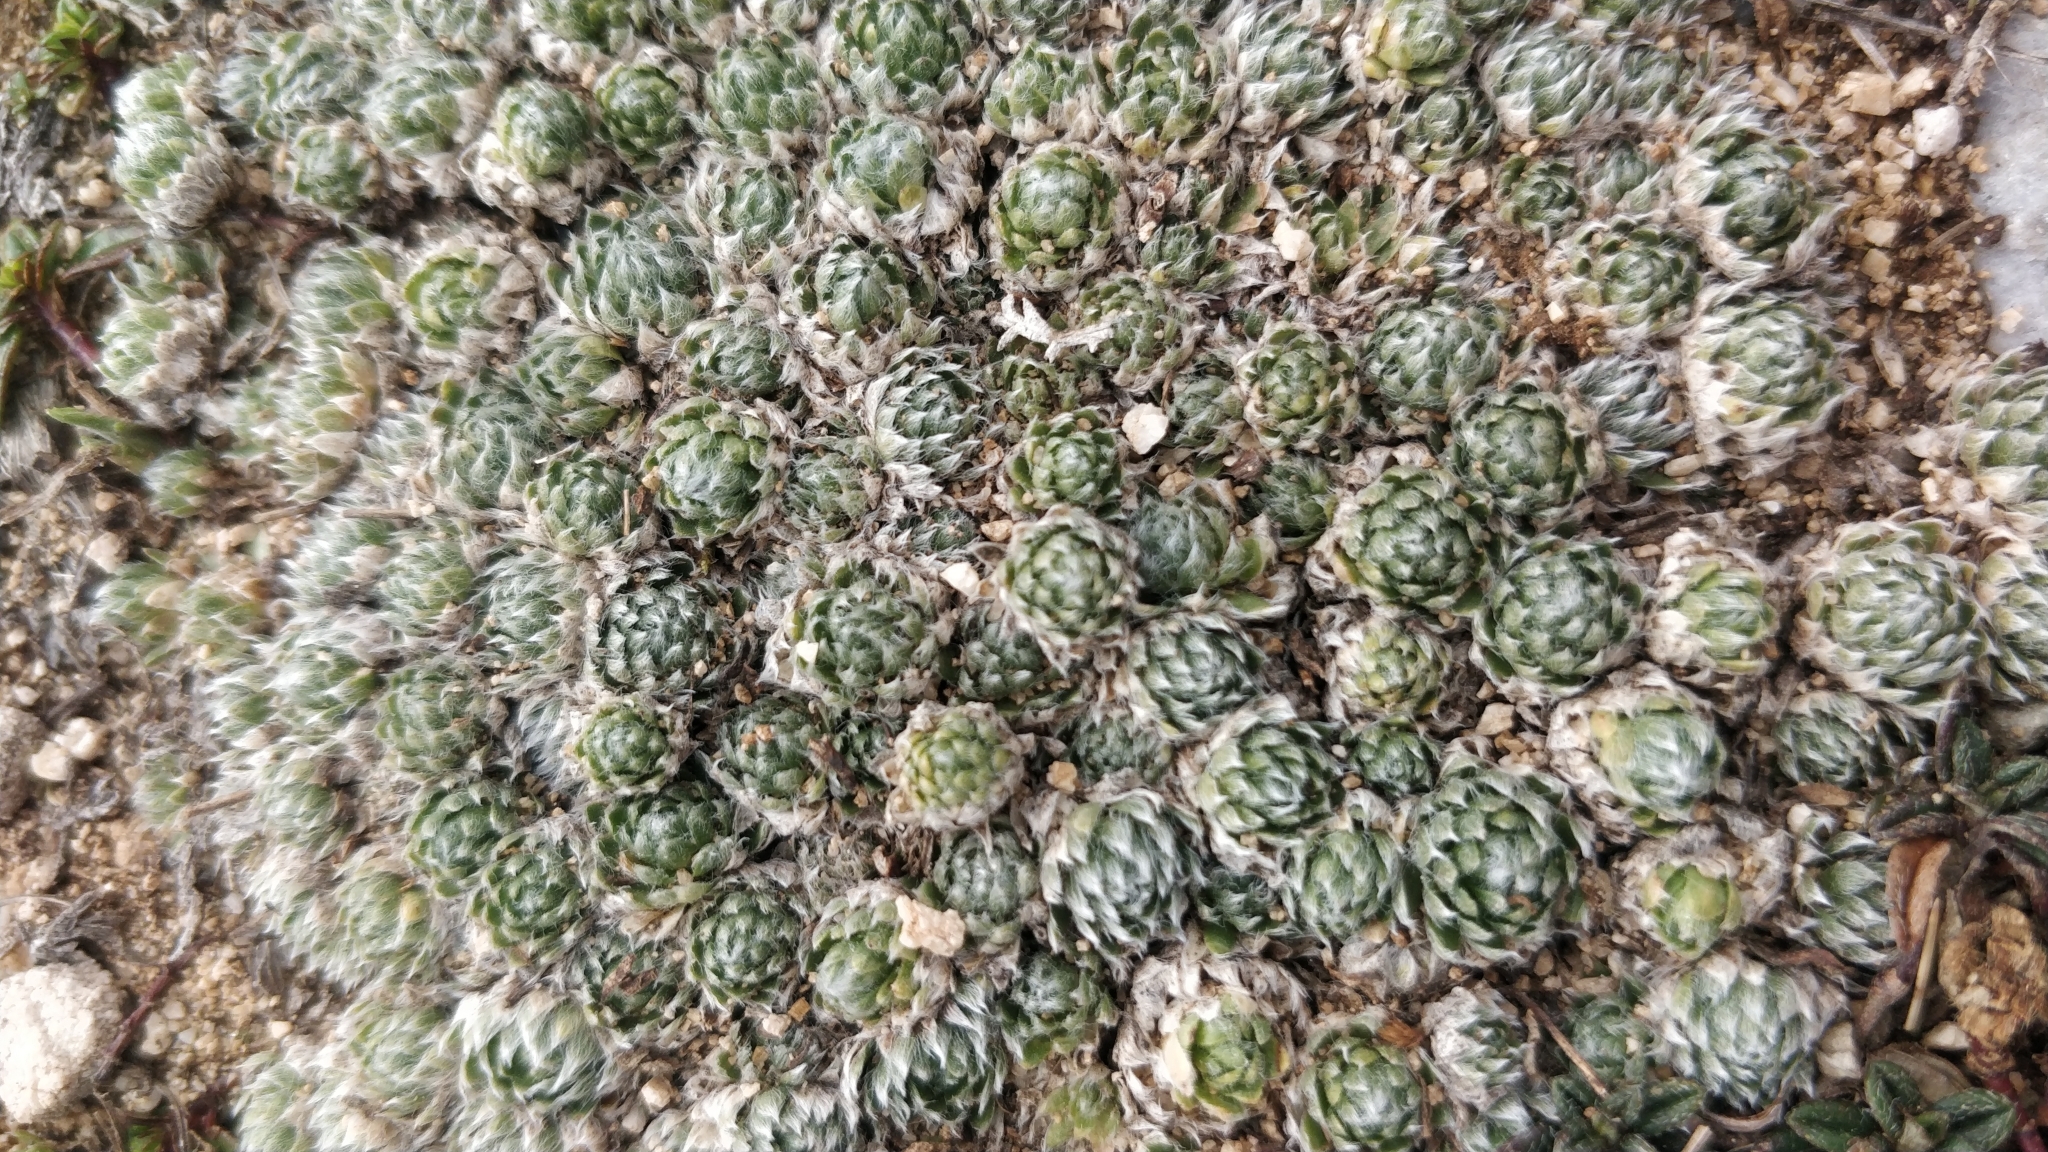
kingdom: Plantae
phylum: Tracheophyta
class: Magnoliopsida
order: Ericales
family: Primulaceae
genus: Androsace
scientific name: Androsace villosa
